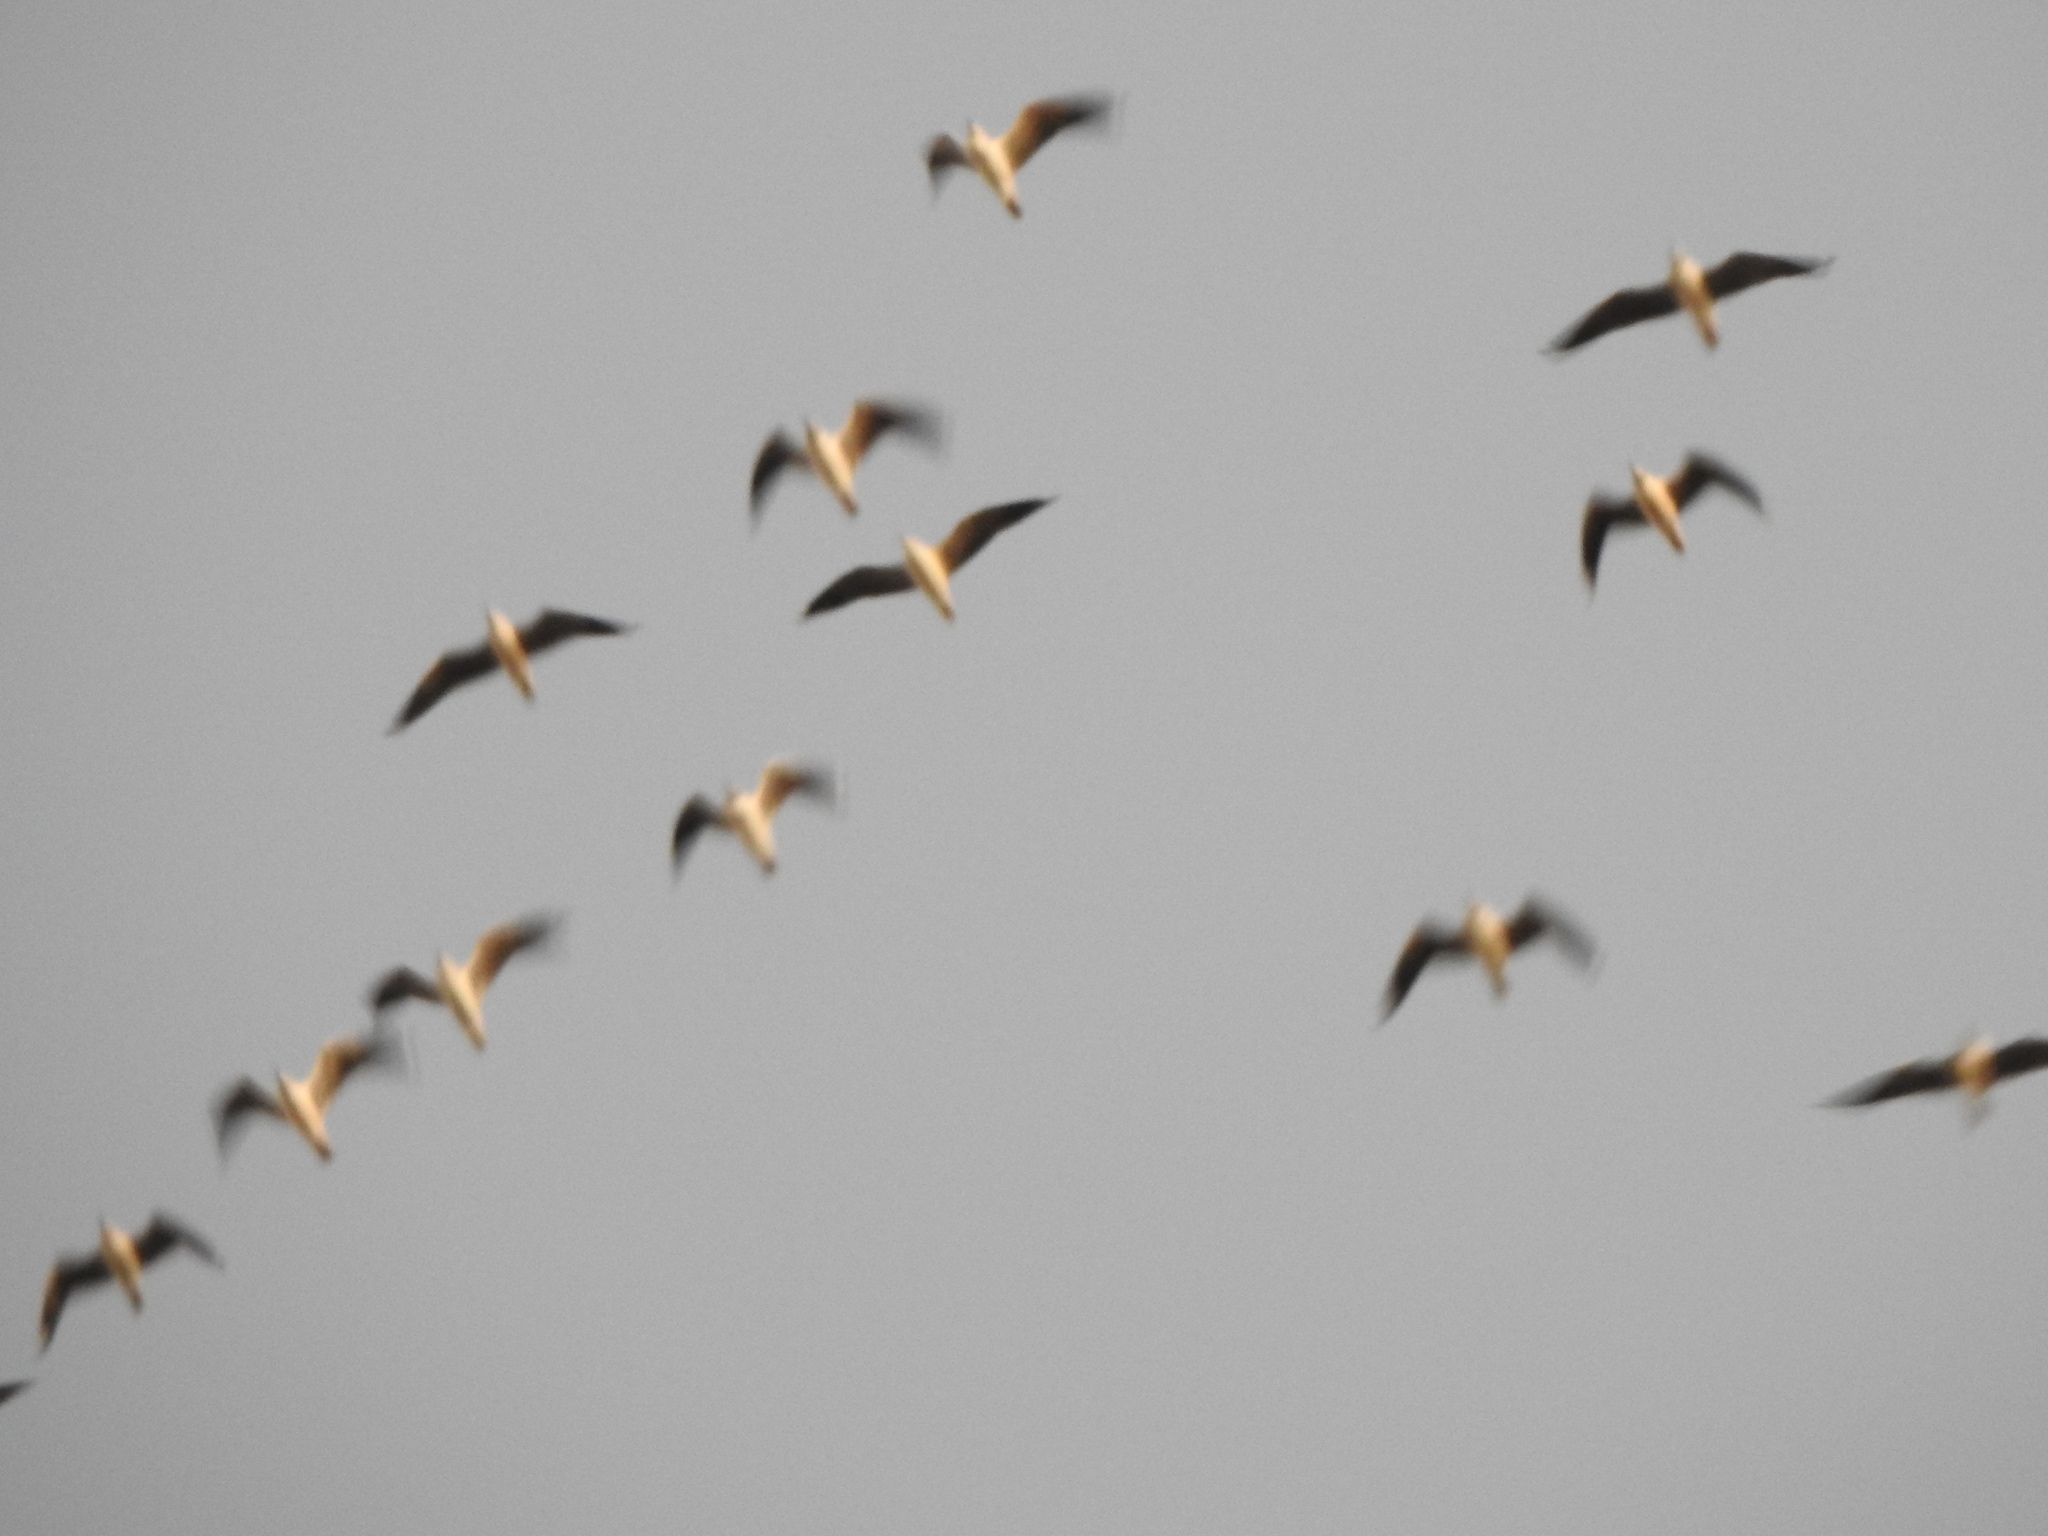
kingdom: Animalia
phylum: Chordata
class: Aves
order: Charadriiformes
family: Laridae
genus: Chroicocephalus
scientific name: Chroicocephalus maculipennis
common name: Brown-hooded gull
